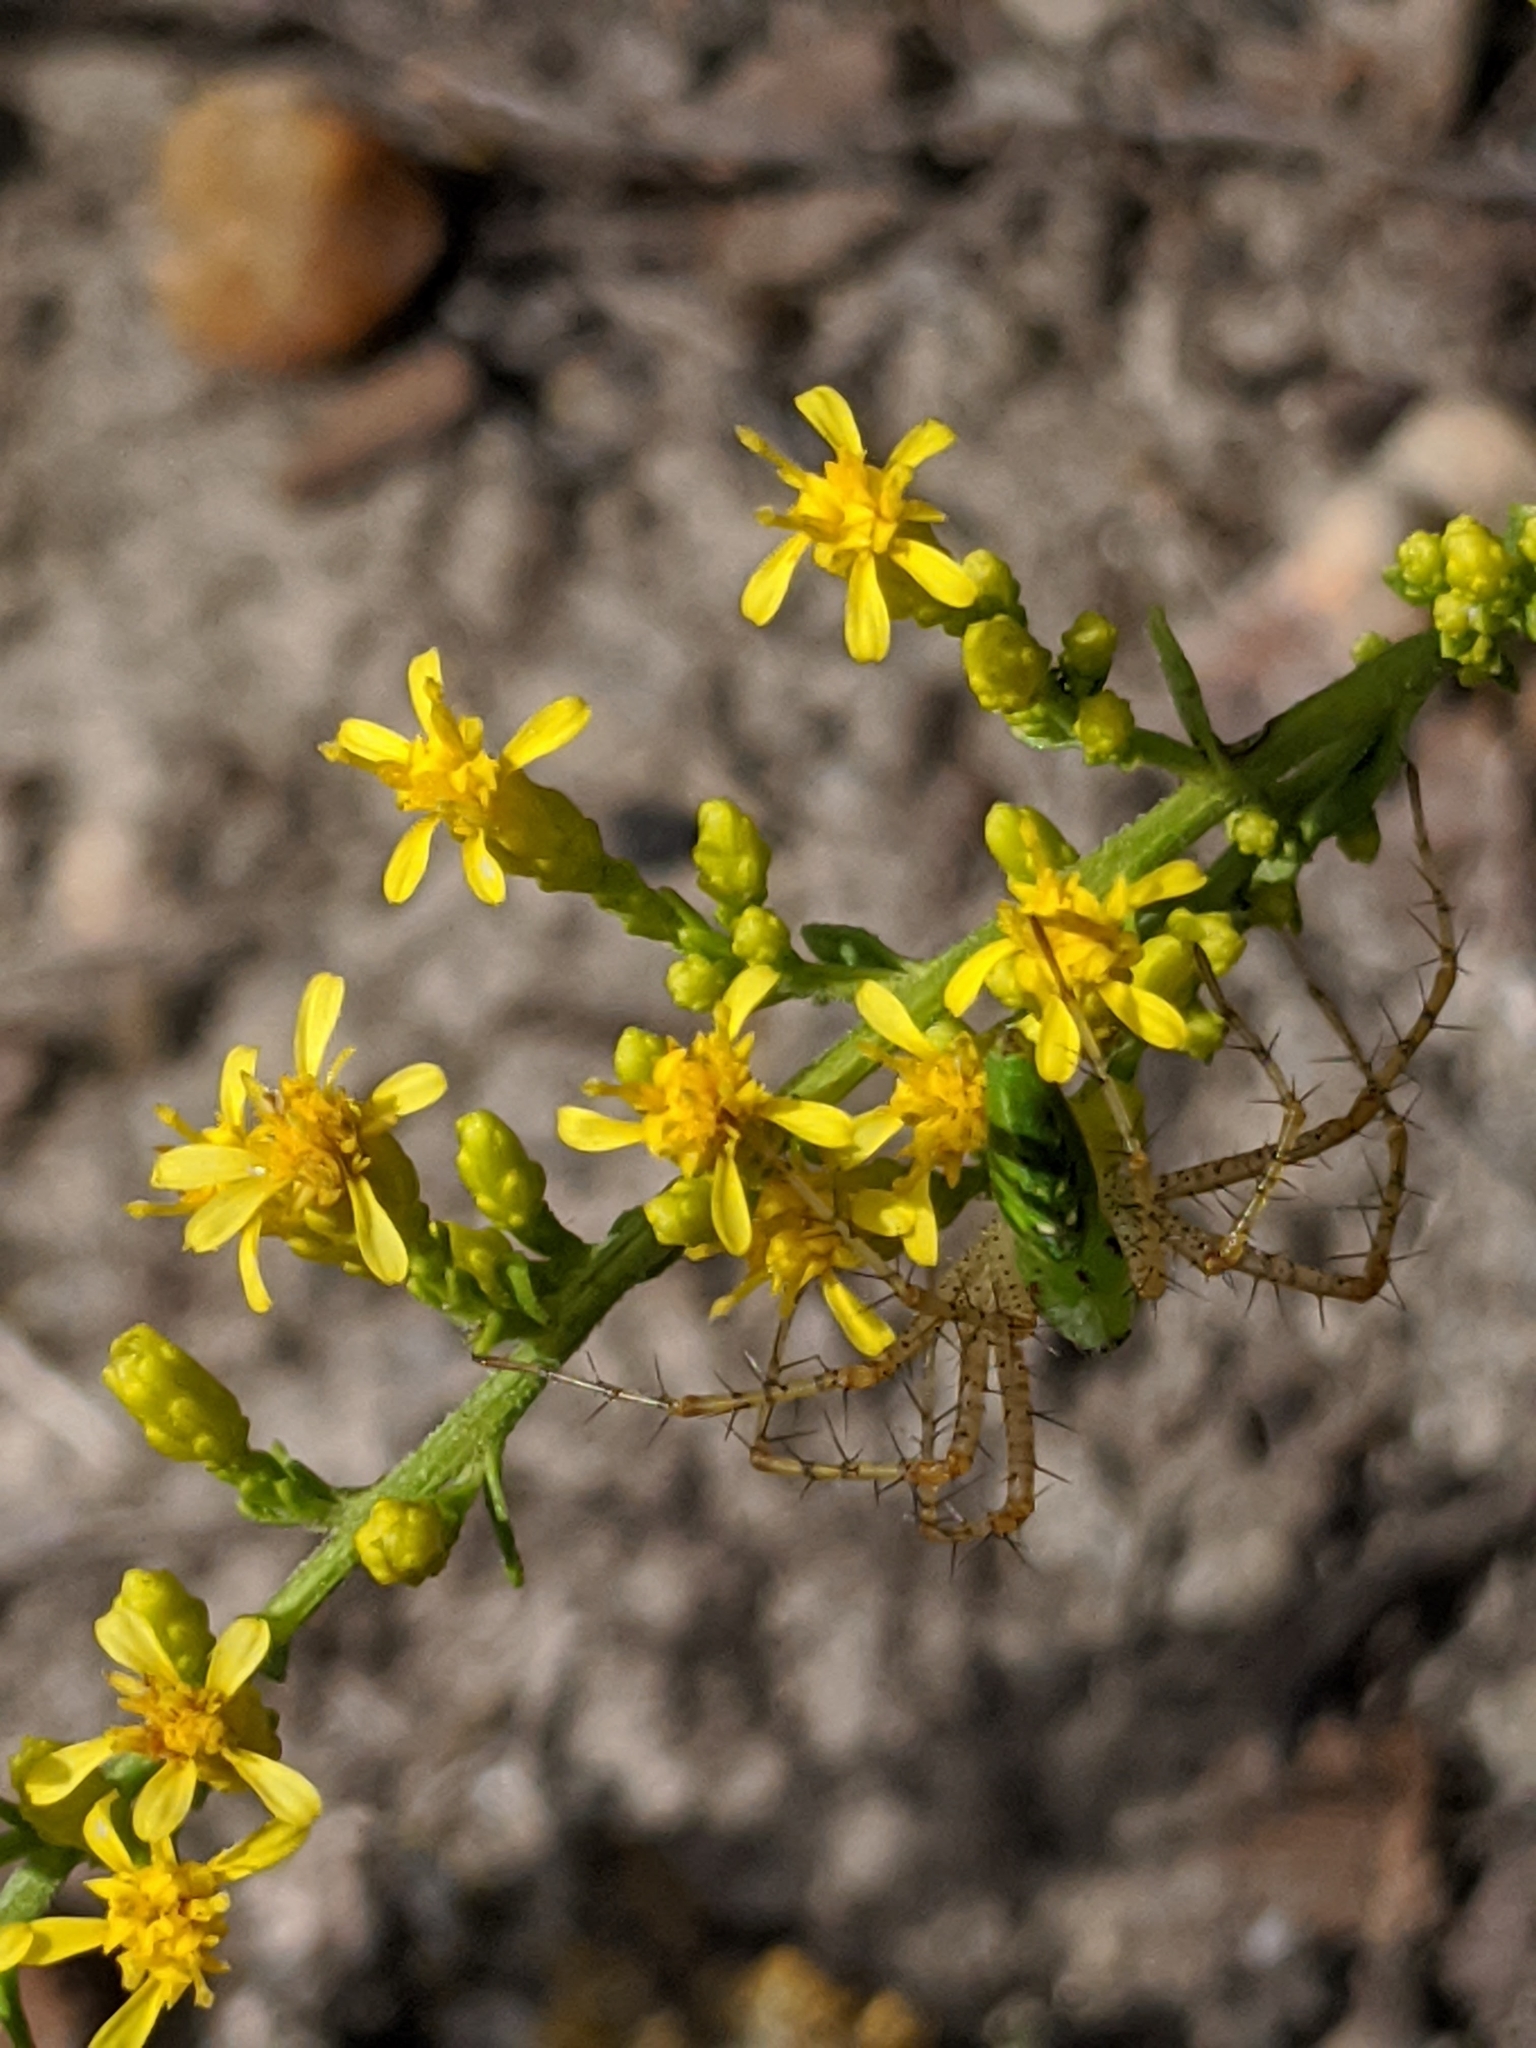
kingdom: Animalia
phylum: Arthropoda
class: Arachnida
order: Araneae
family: Oxyopidae
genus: Peucetia
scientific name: Peucetia viridans
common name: Lynx spiders
